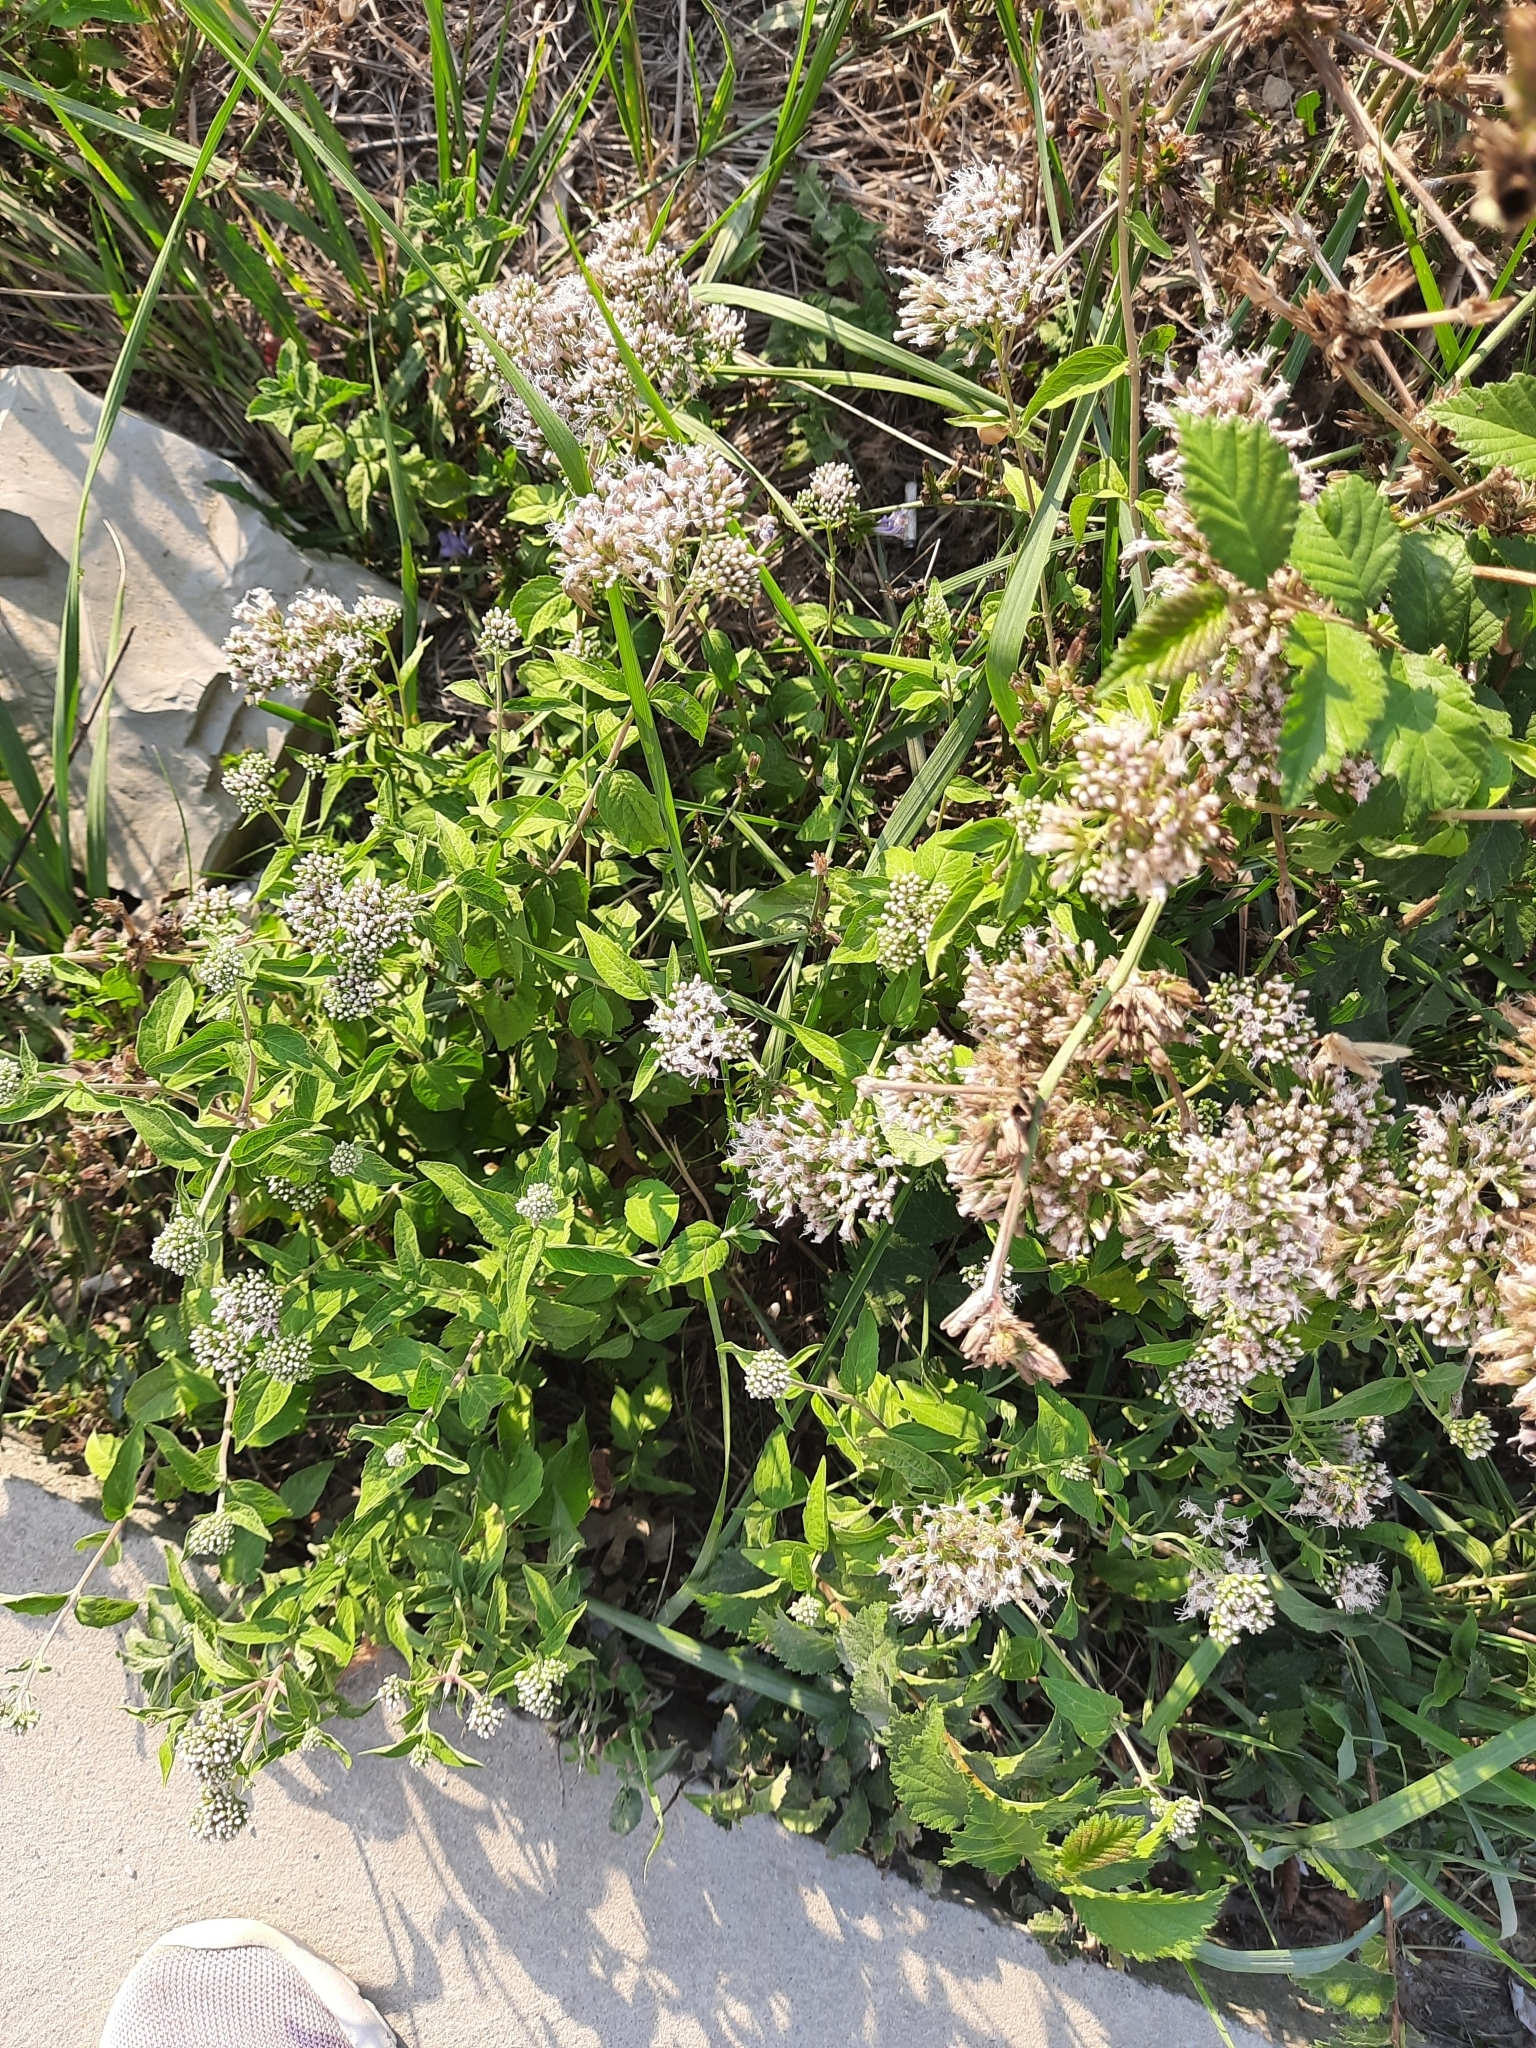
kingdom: Plantae
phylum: Tracheophyta
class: Magnoliopsida
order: Asterales
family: Asteraceae
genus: Eupatorium
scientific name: Eupatorium cannabinum
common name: Hemp-agrimony
